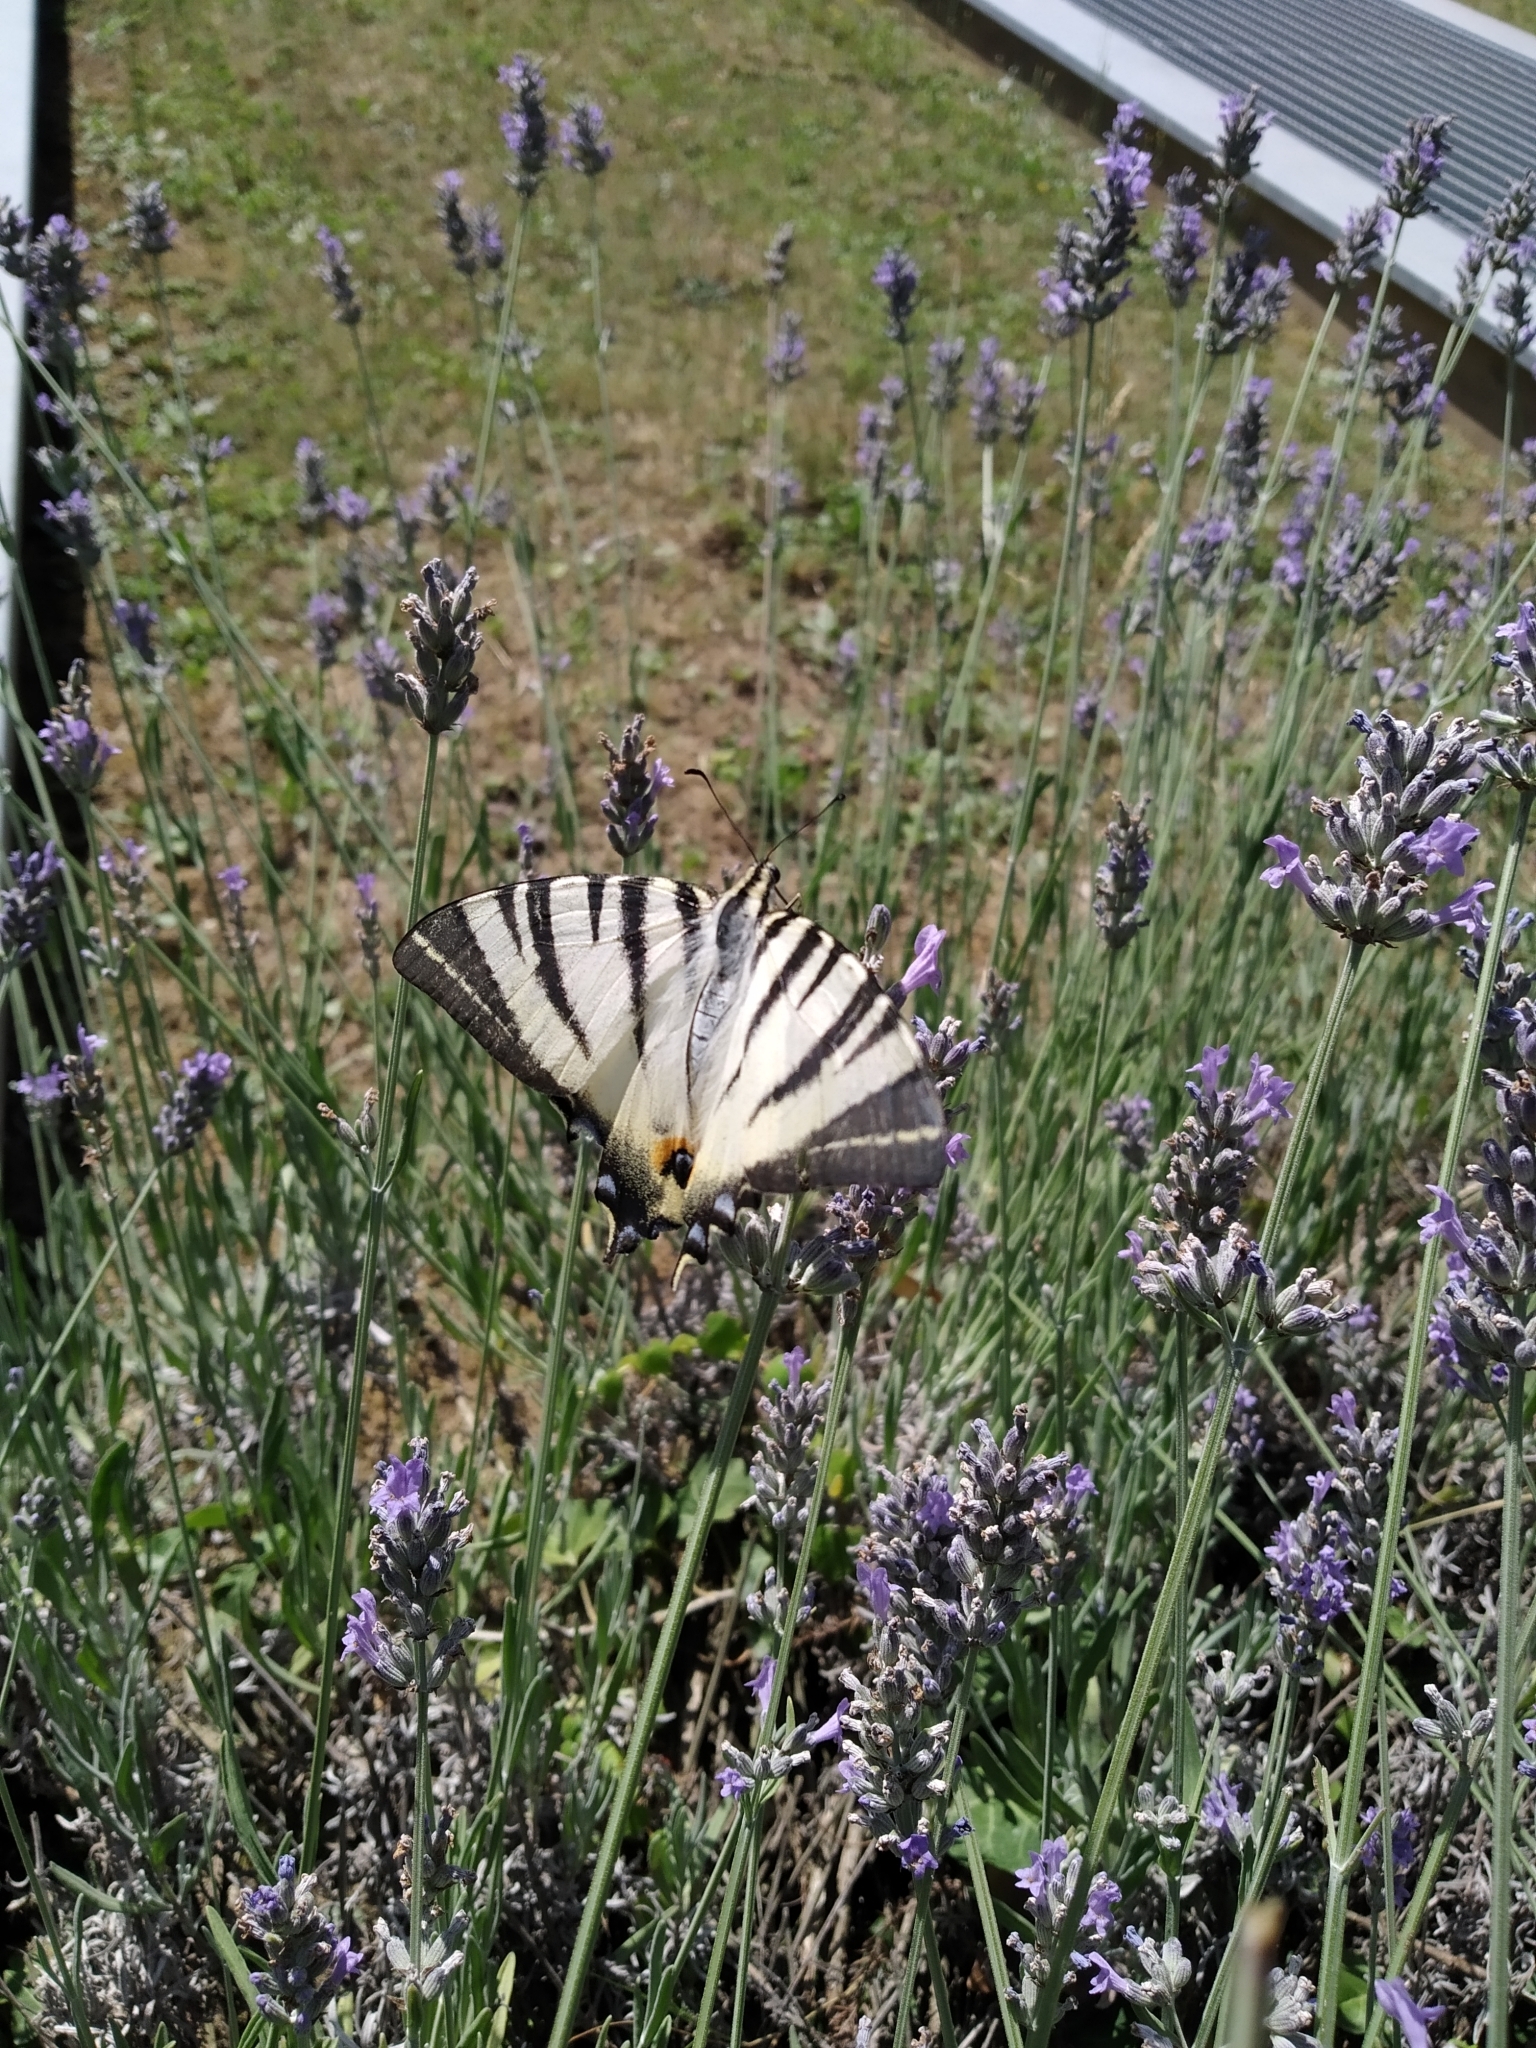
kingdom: Animalia
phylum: Arthropoda
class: Insecta
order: Lepidoptera
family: Papilionidae
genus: Iphiclides
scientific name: Iphiclides podalirius
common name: Scarce swallowtail
